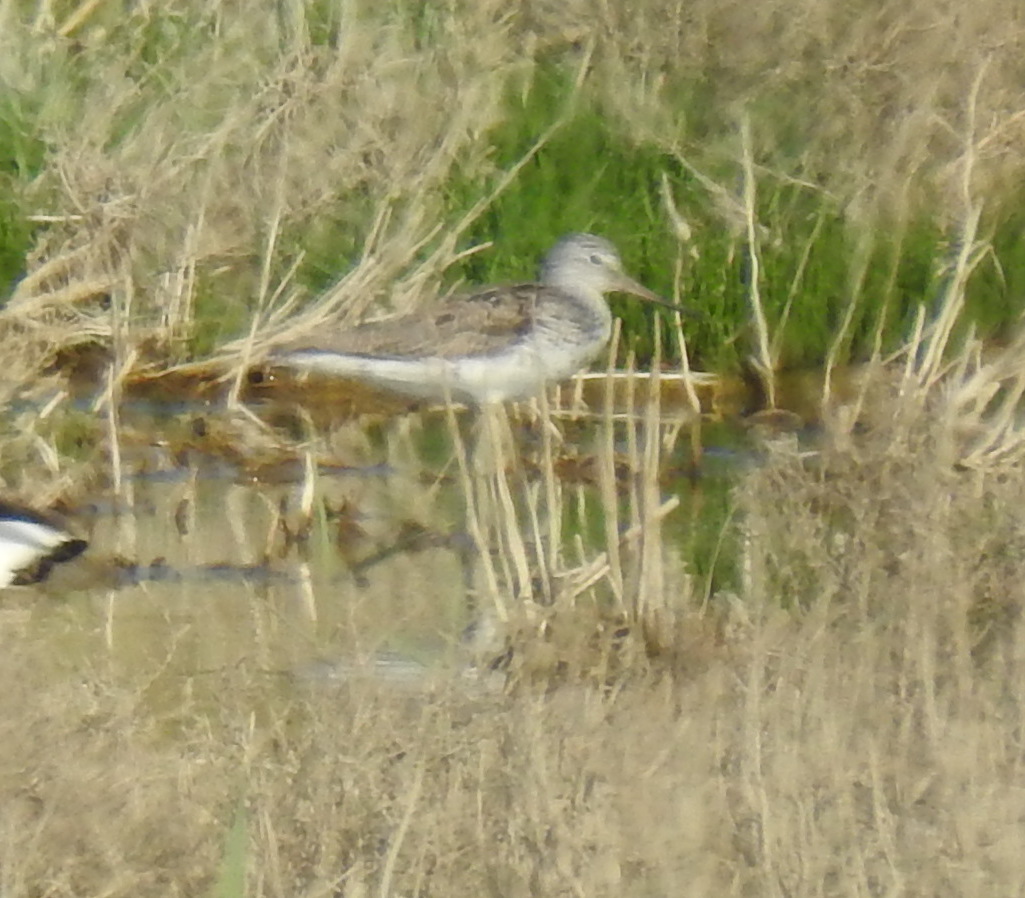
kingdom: Animalia
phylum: Chordata
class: Aves
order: Charadriiformes
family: Scolopacidae
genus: Tringa
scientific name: Tringa nebularia
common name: Common greenshank
